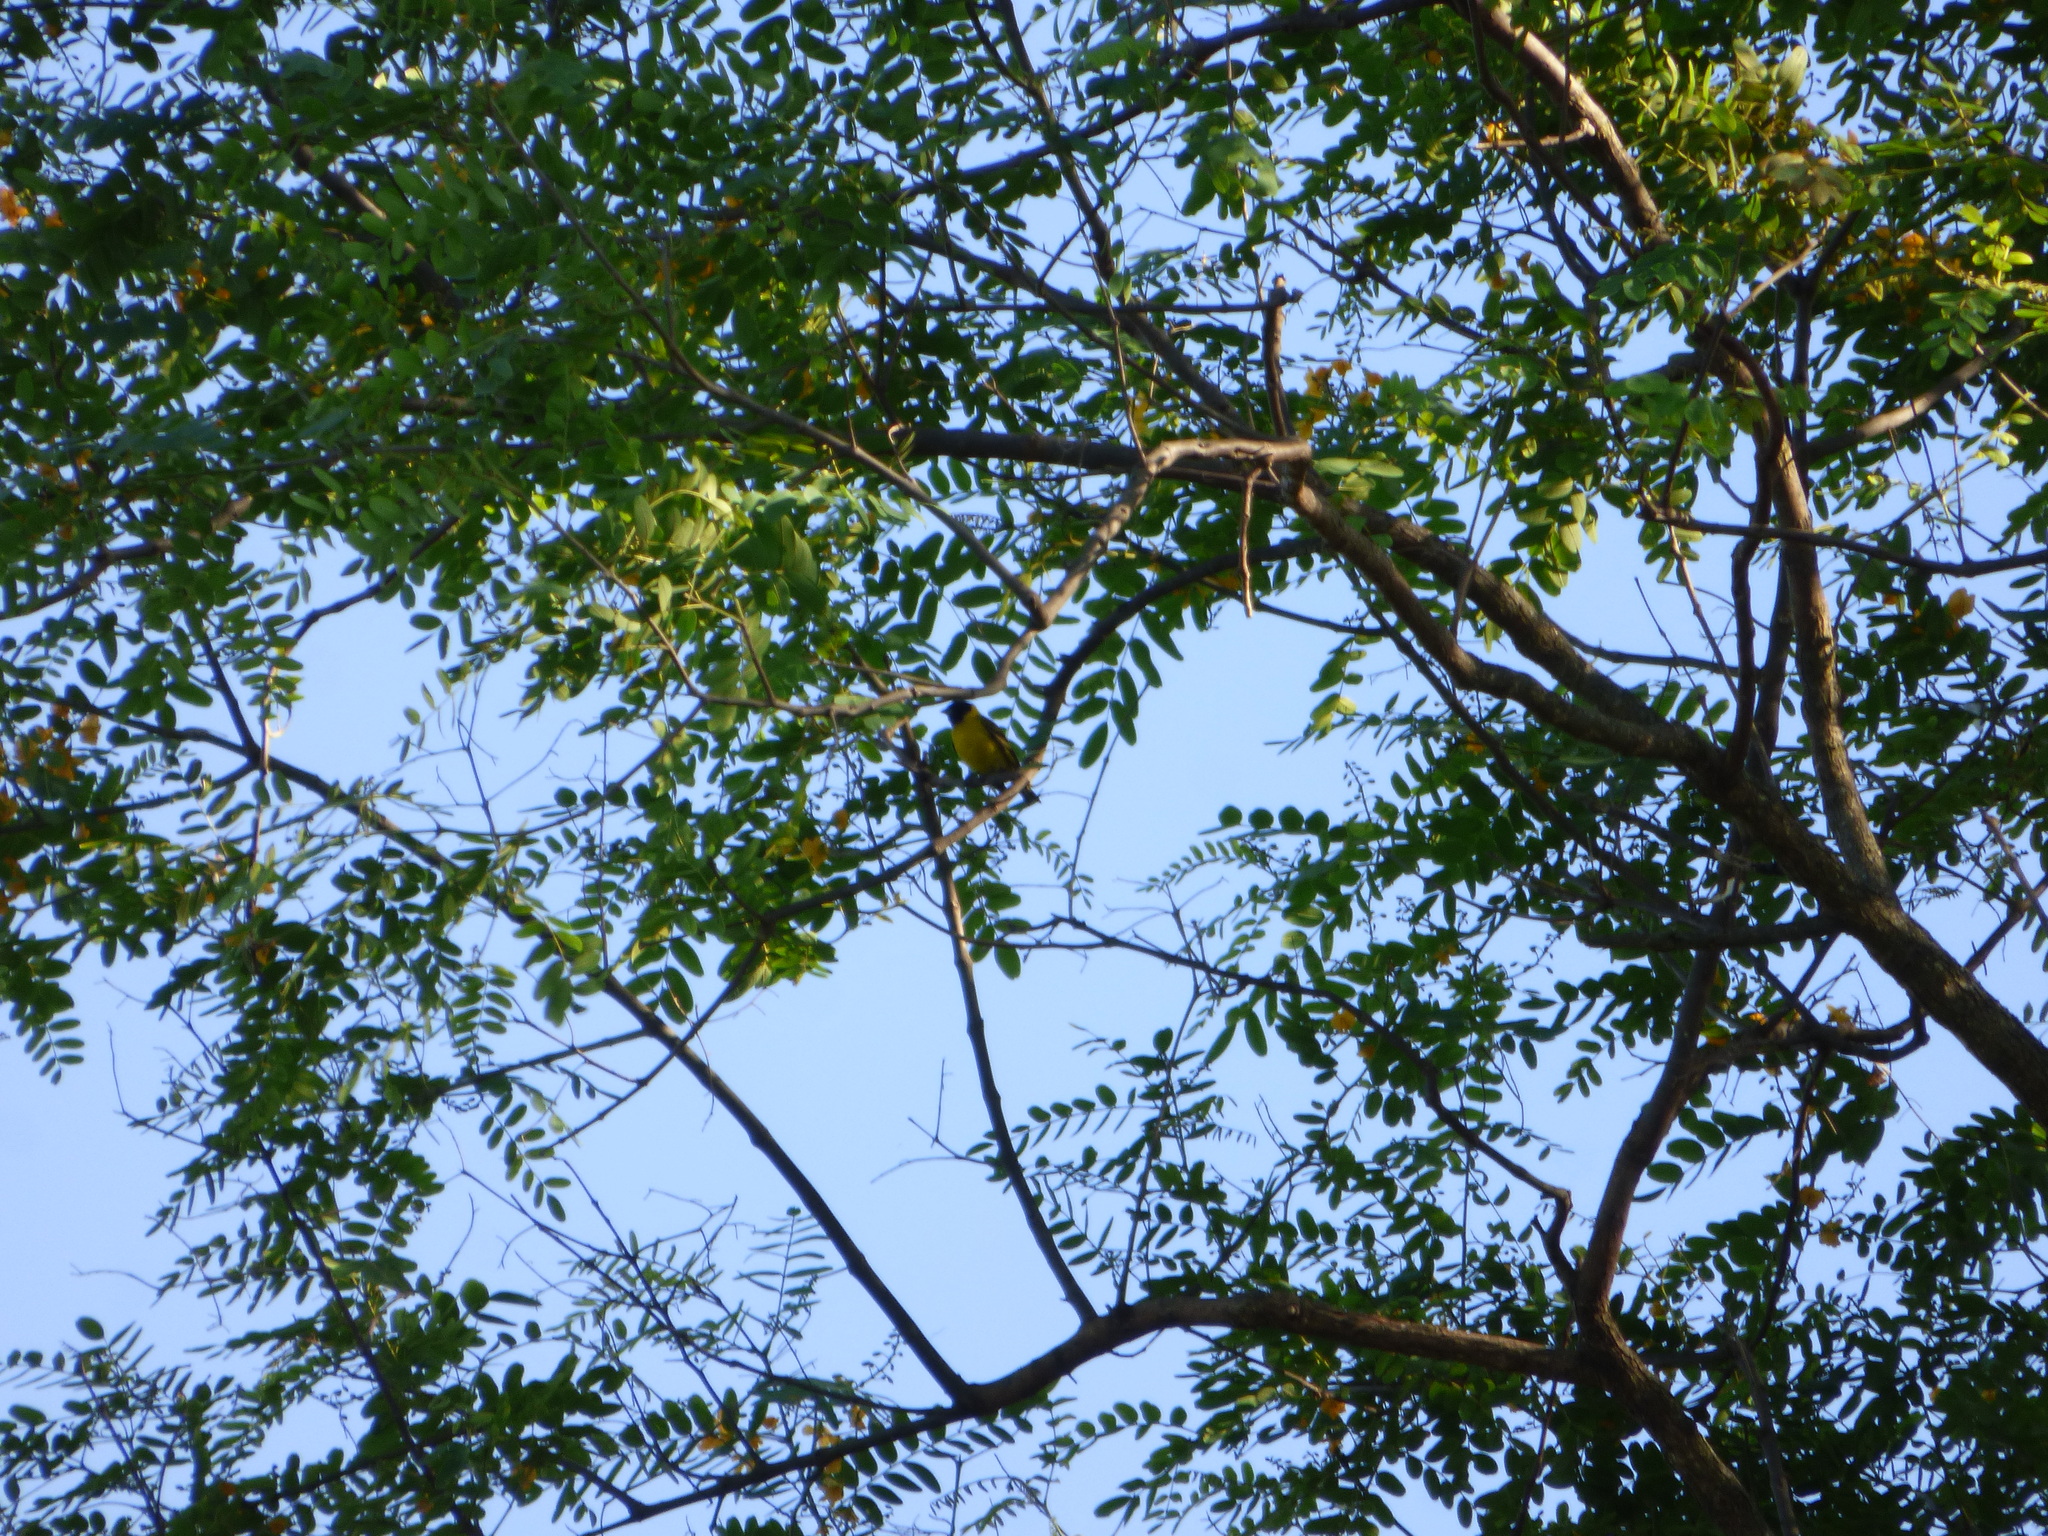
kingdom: Animalia
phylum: Chordata
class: Aves
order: Passeriformes
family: Fringillidae
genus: Spinus
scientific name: Spinus magellanicus
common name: Hooded siskin
